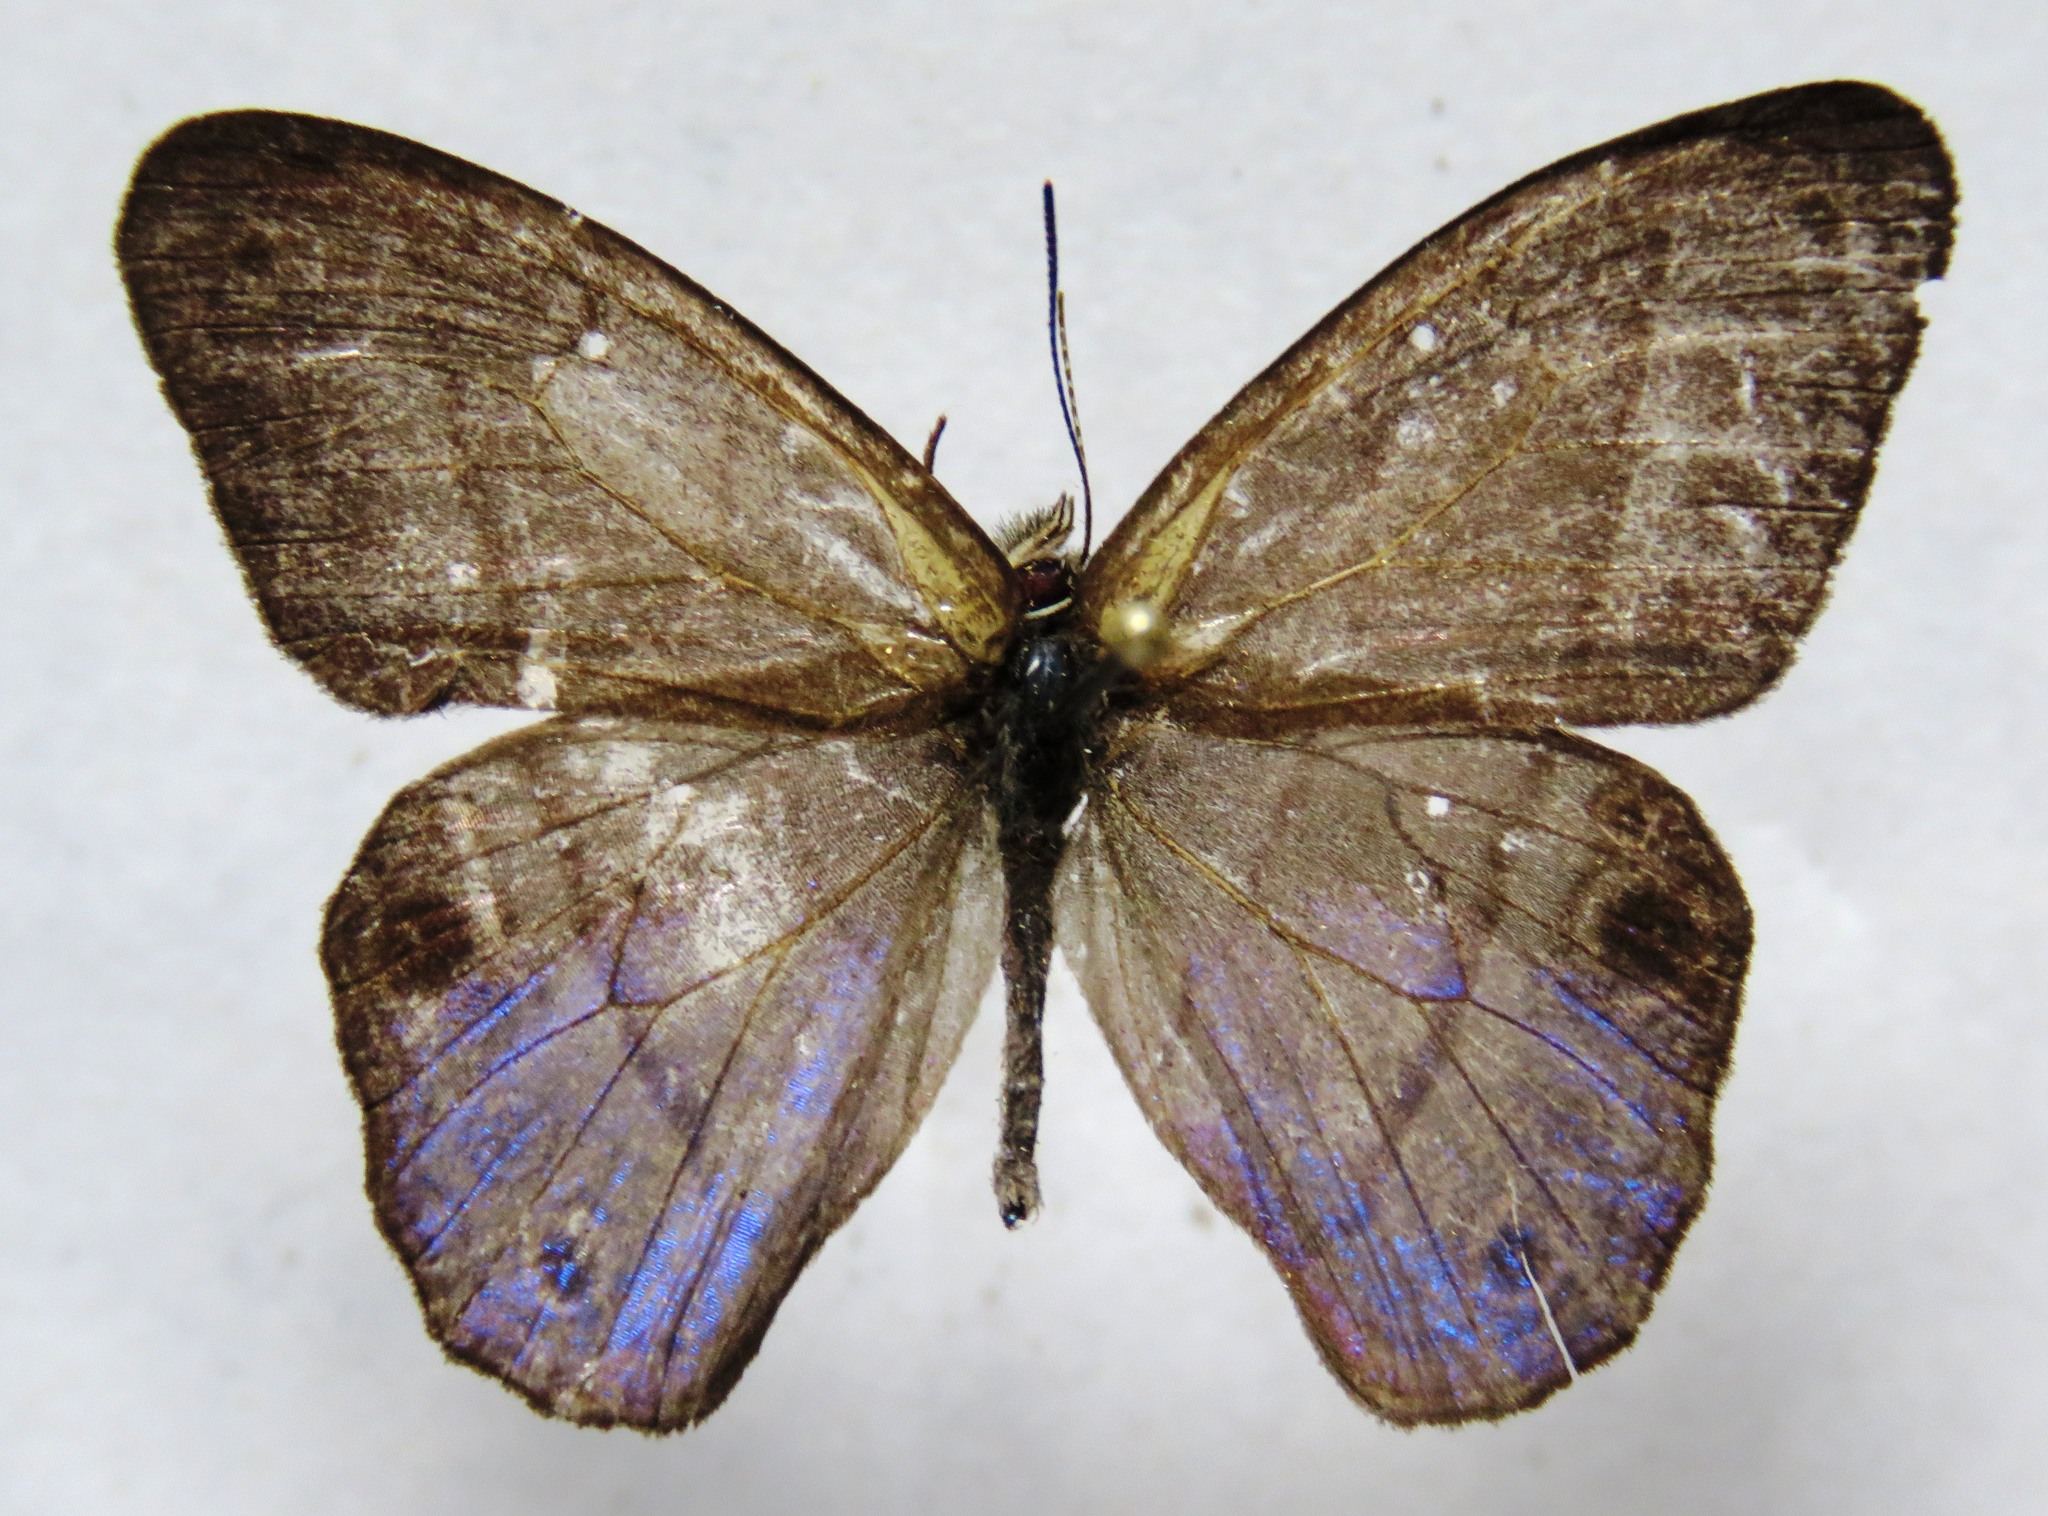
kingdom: Animalia
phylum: Arthropoda
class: Insecta
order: Lepidoptera
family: Nymphalidae
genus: Amiga
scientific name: Amiga arnaca
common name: Blue-topped satyr
